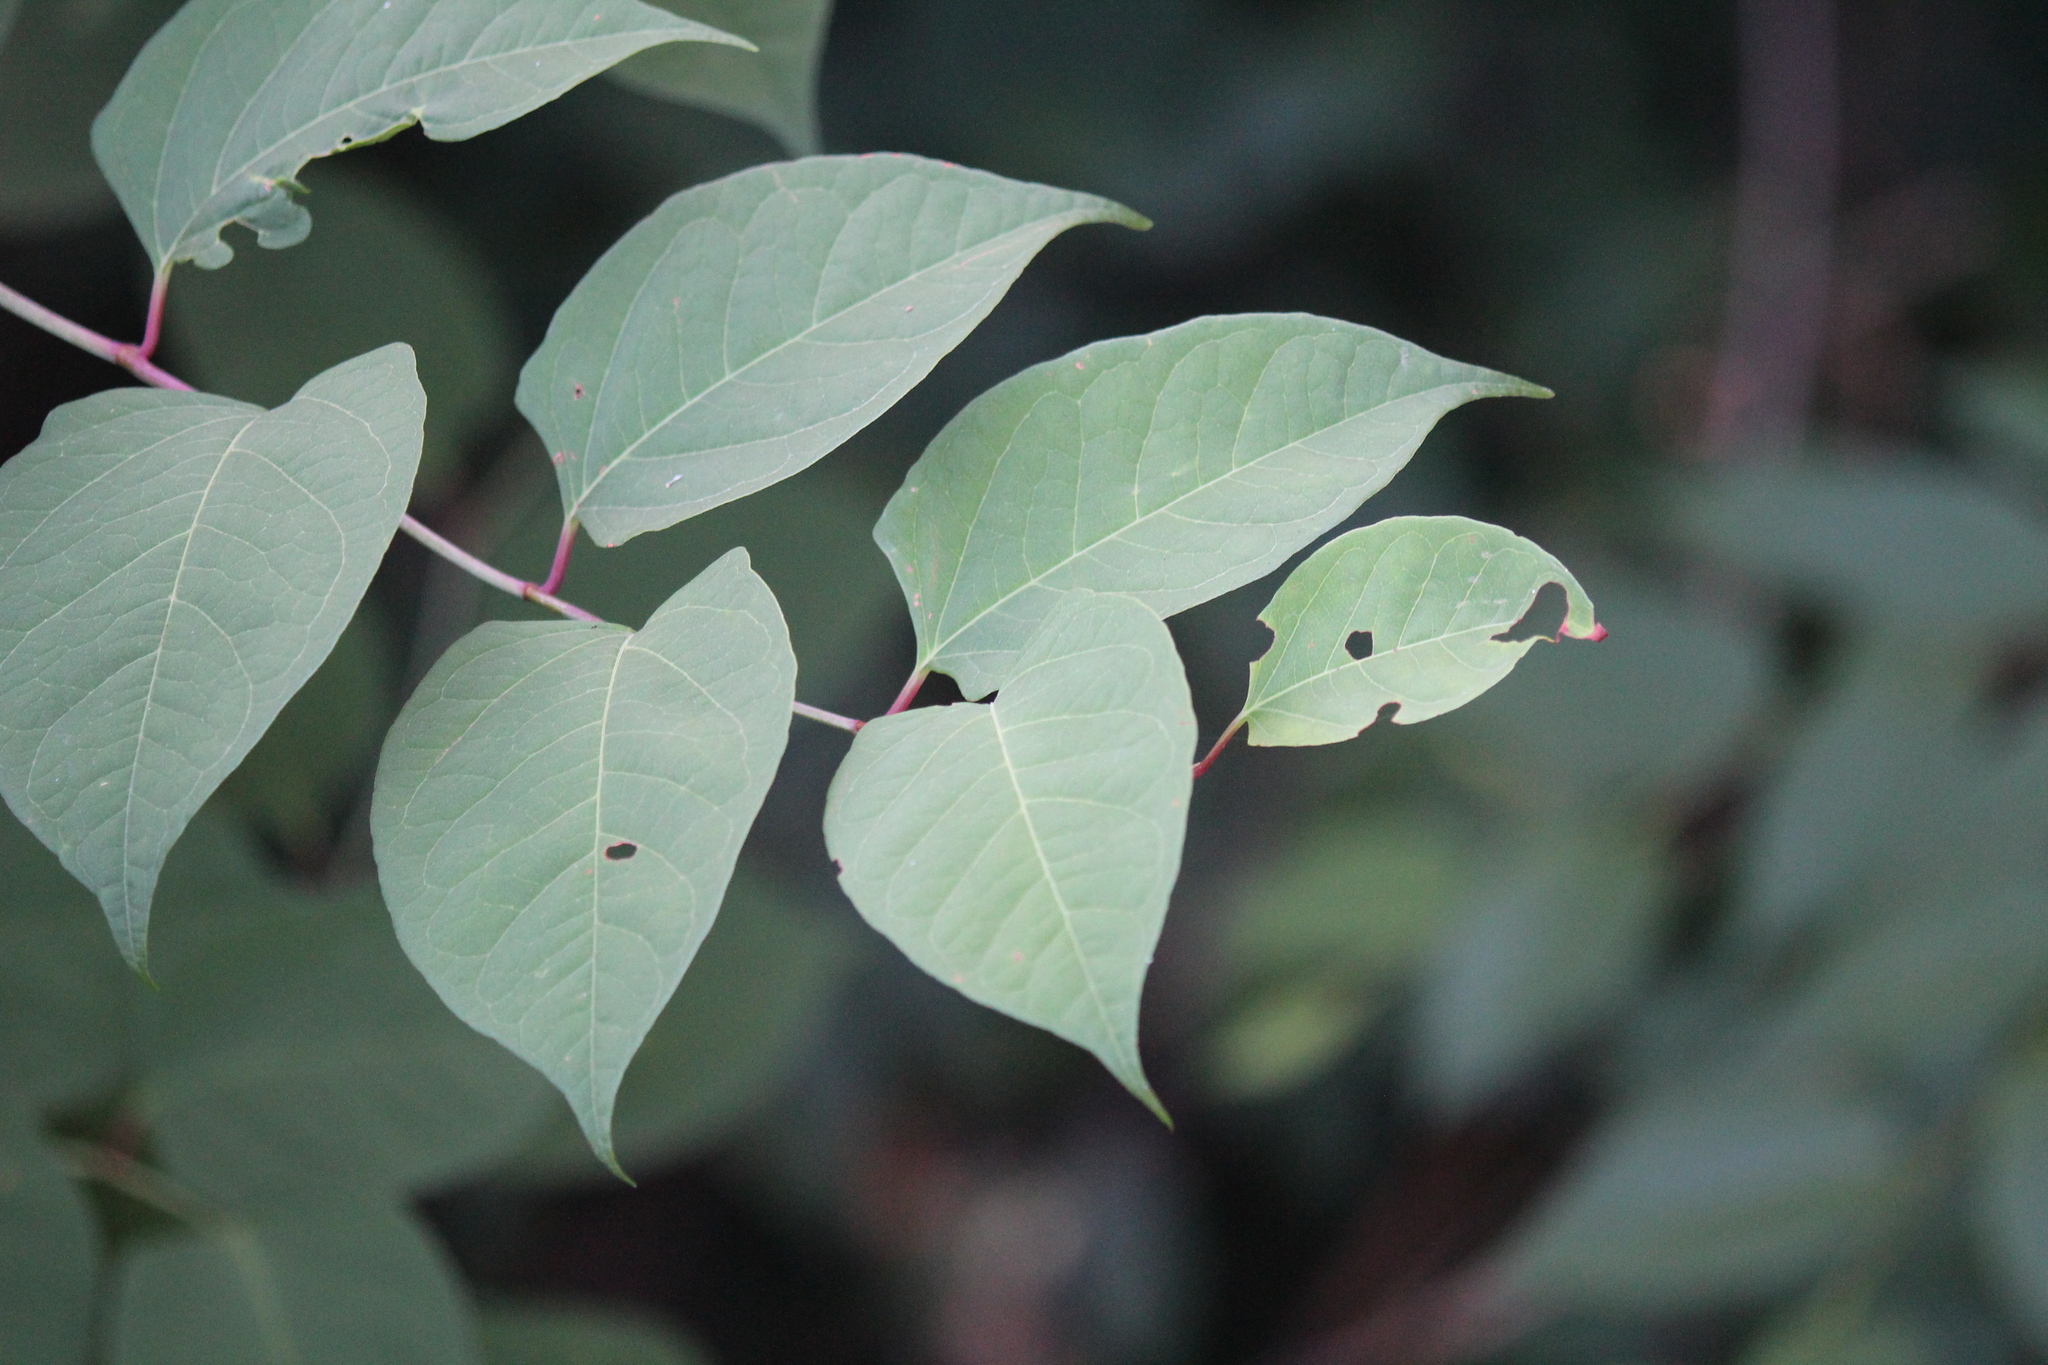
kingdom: Plantae
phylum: Tracheophyta
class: Magnoliopsida
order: Caryophyllales
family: Polygonaceae
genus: Reynoutria
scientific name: Reynoutria japonica
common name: Japanese knotweed
